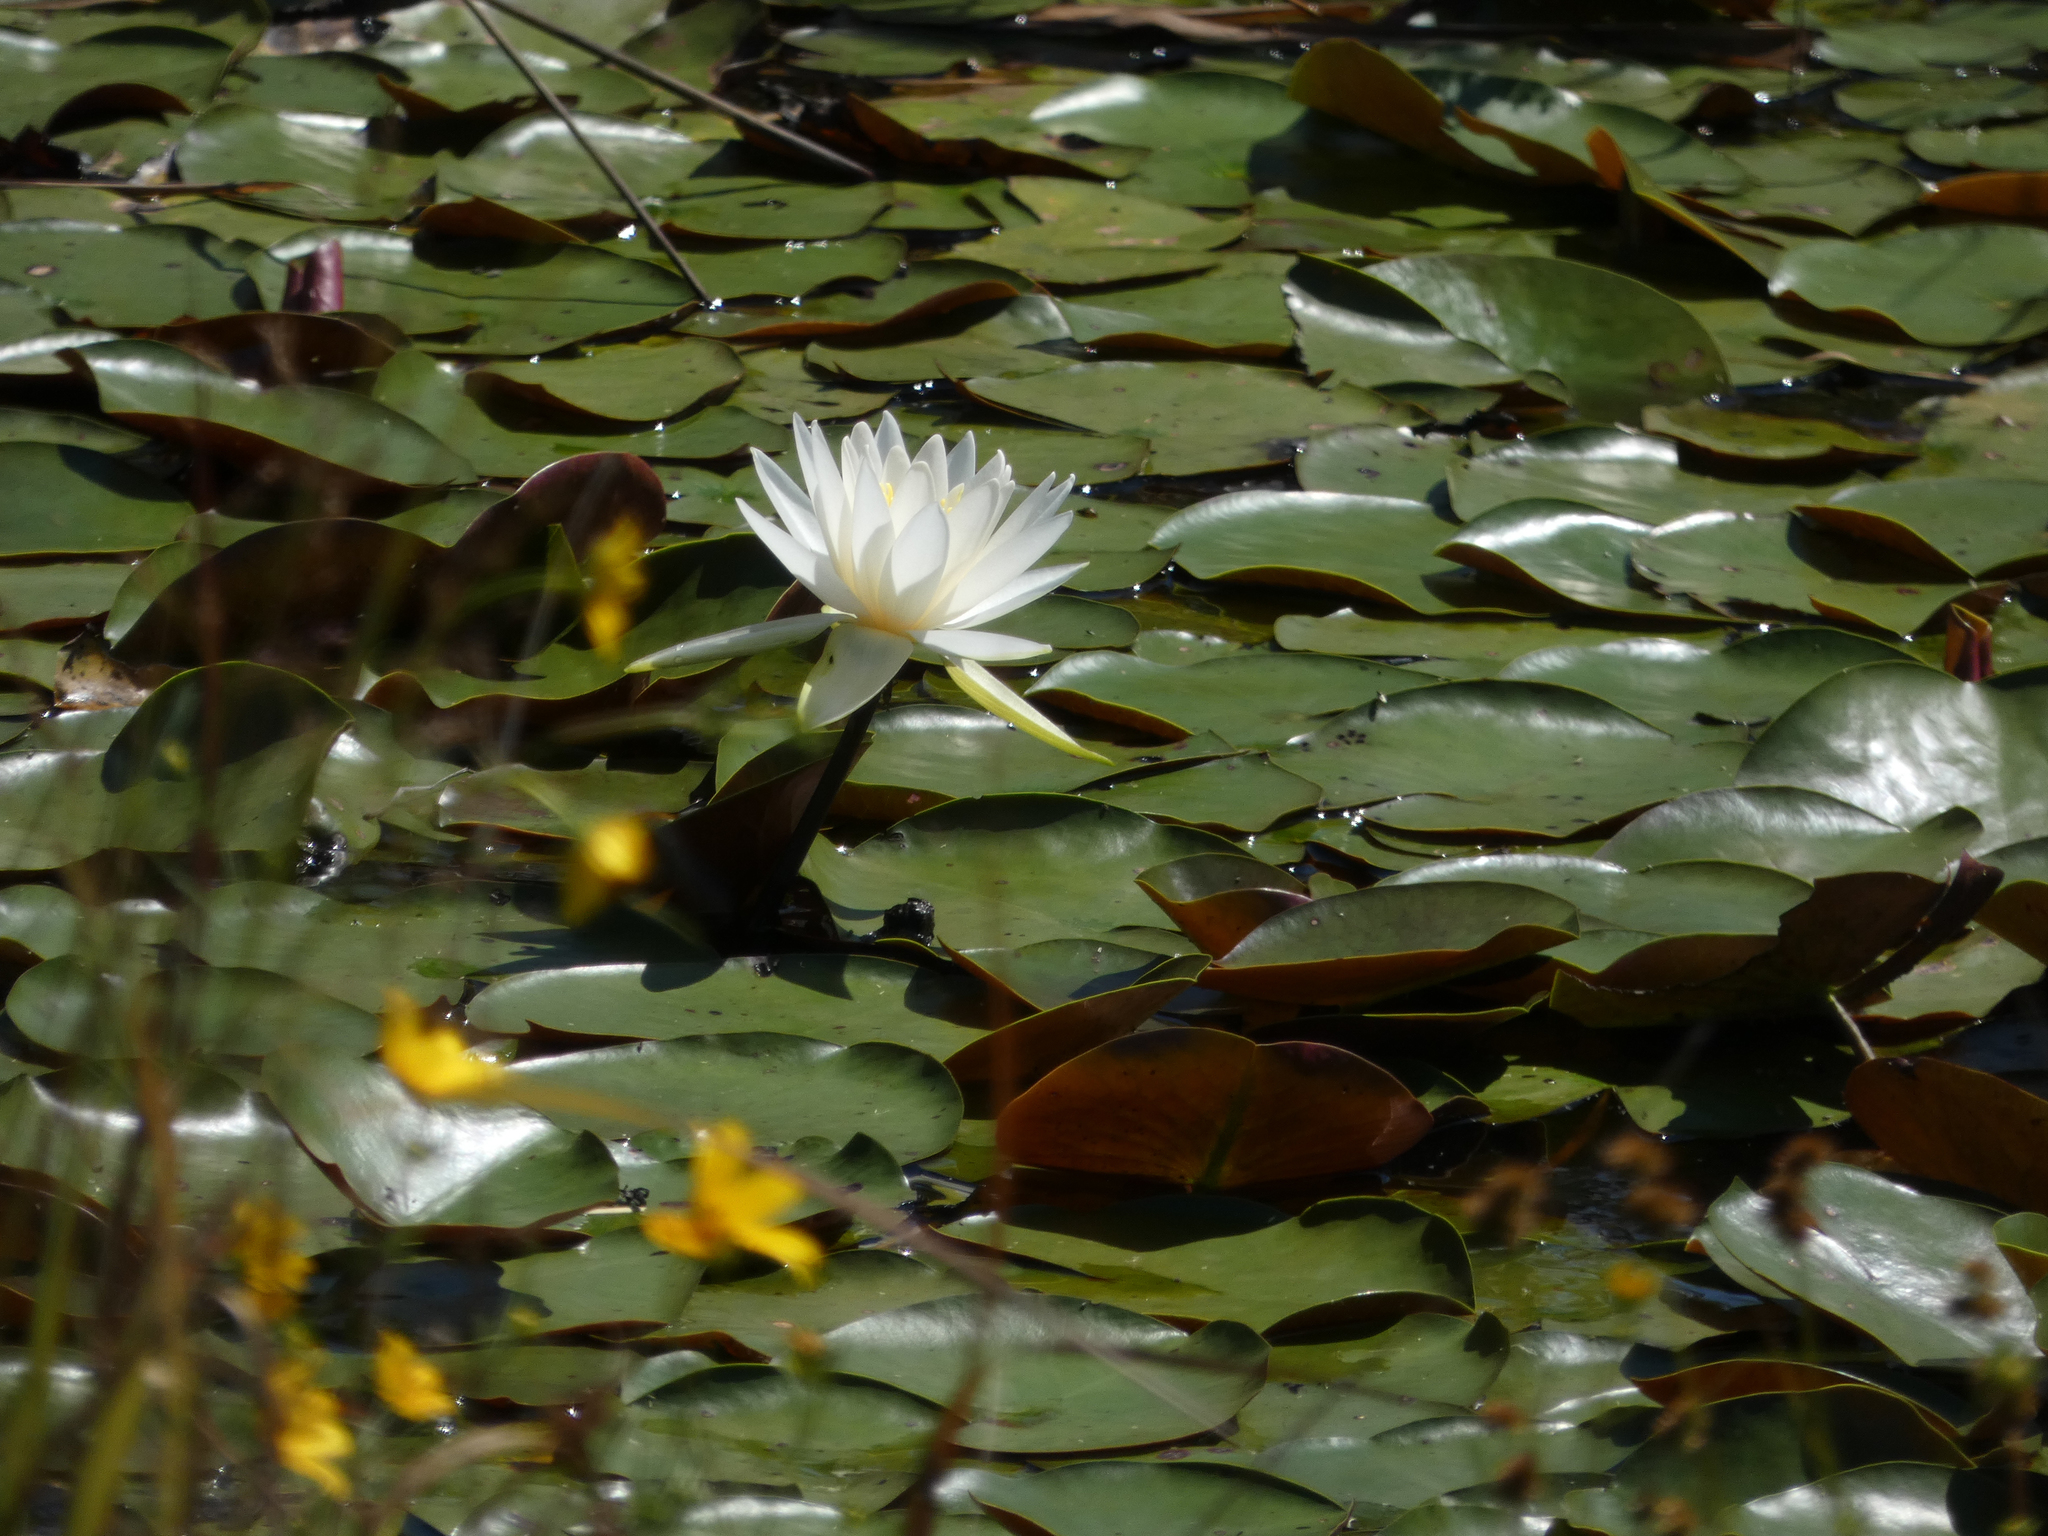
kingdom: Plantae
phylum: Tracheophyta
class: Magnoliopsida
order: Nymphaeales
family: Nymphaeaceae
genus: Nymphaea
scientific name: Nymphaea odorata
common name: Fragrant water-lily
